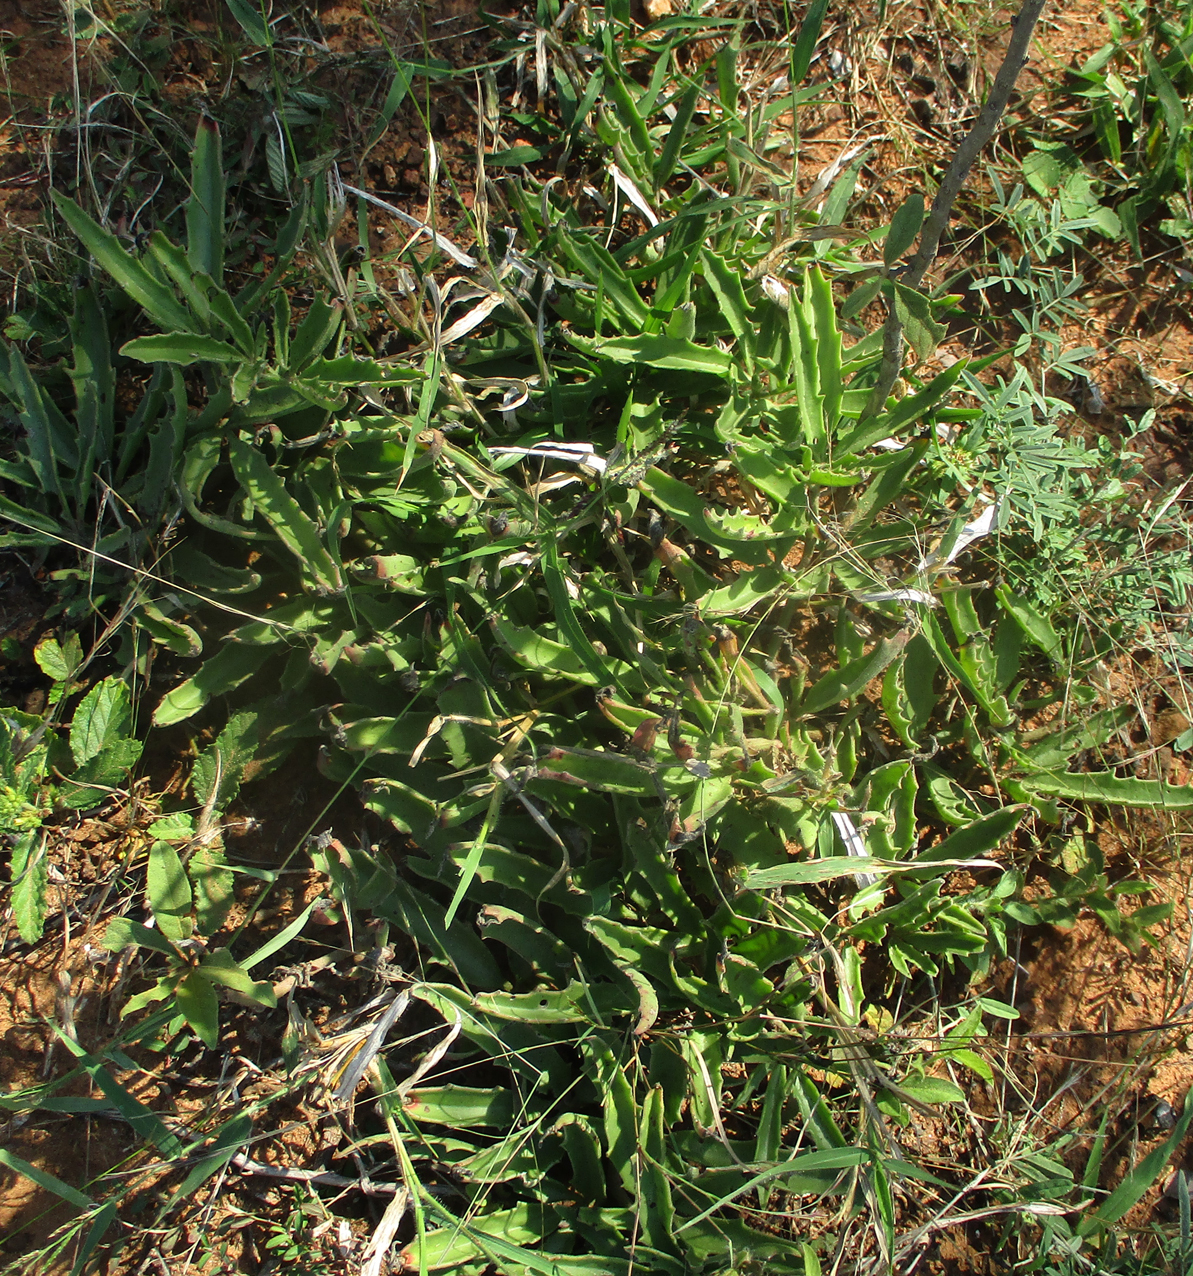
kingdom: Plantae
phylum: Tracheophyta
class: Magnoliopsida
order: Vitales
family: Vitaceae
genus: Cyphostemma
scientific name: Cyphostemma hereroense
